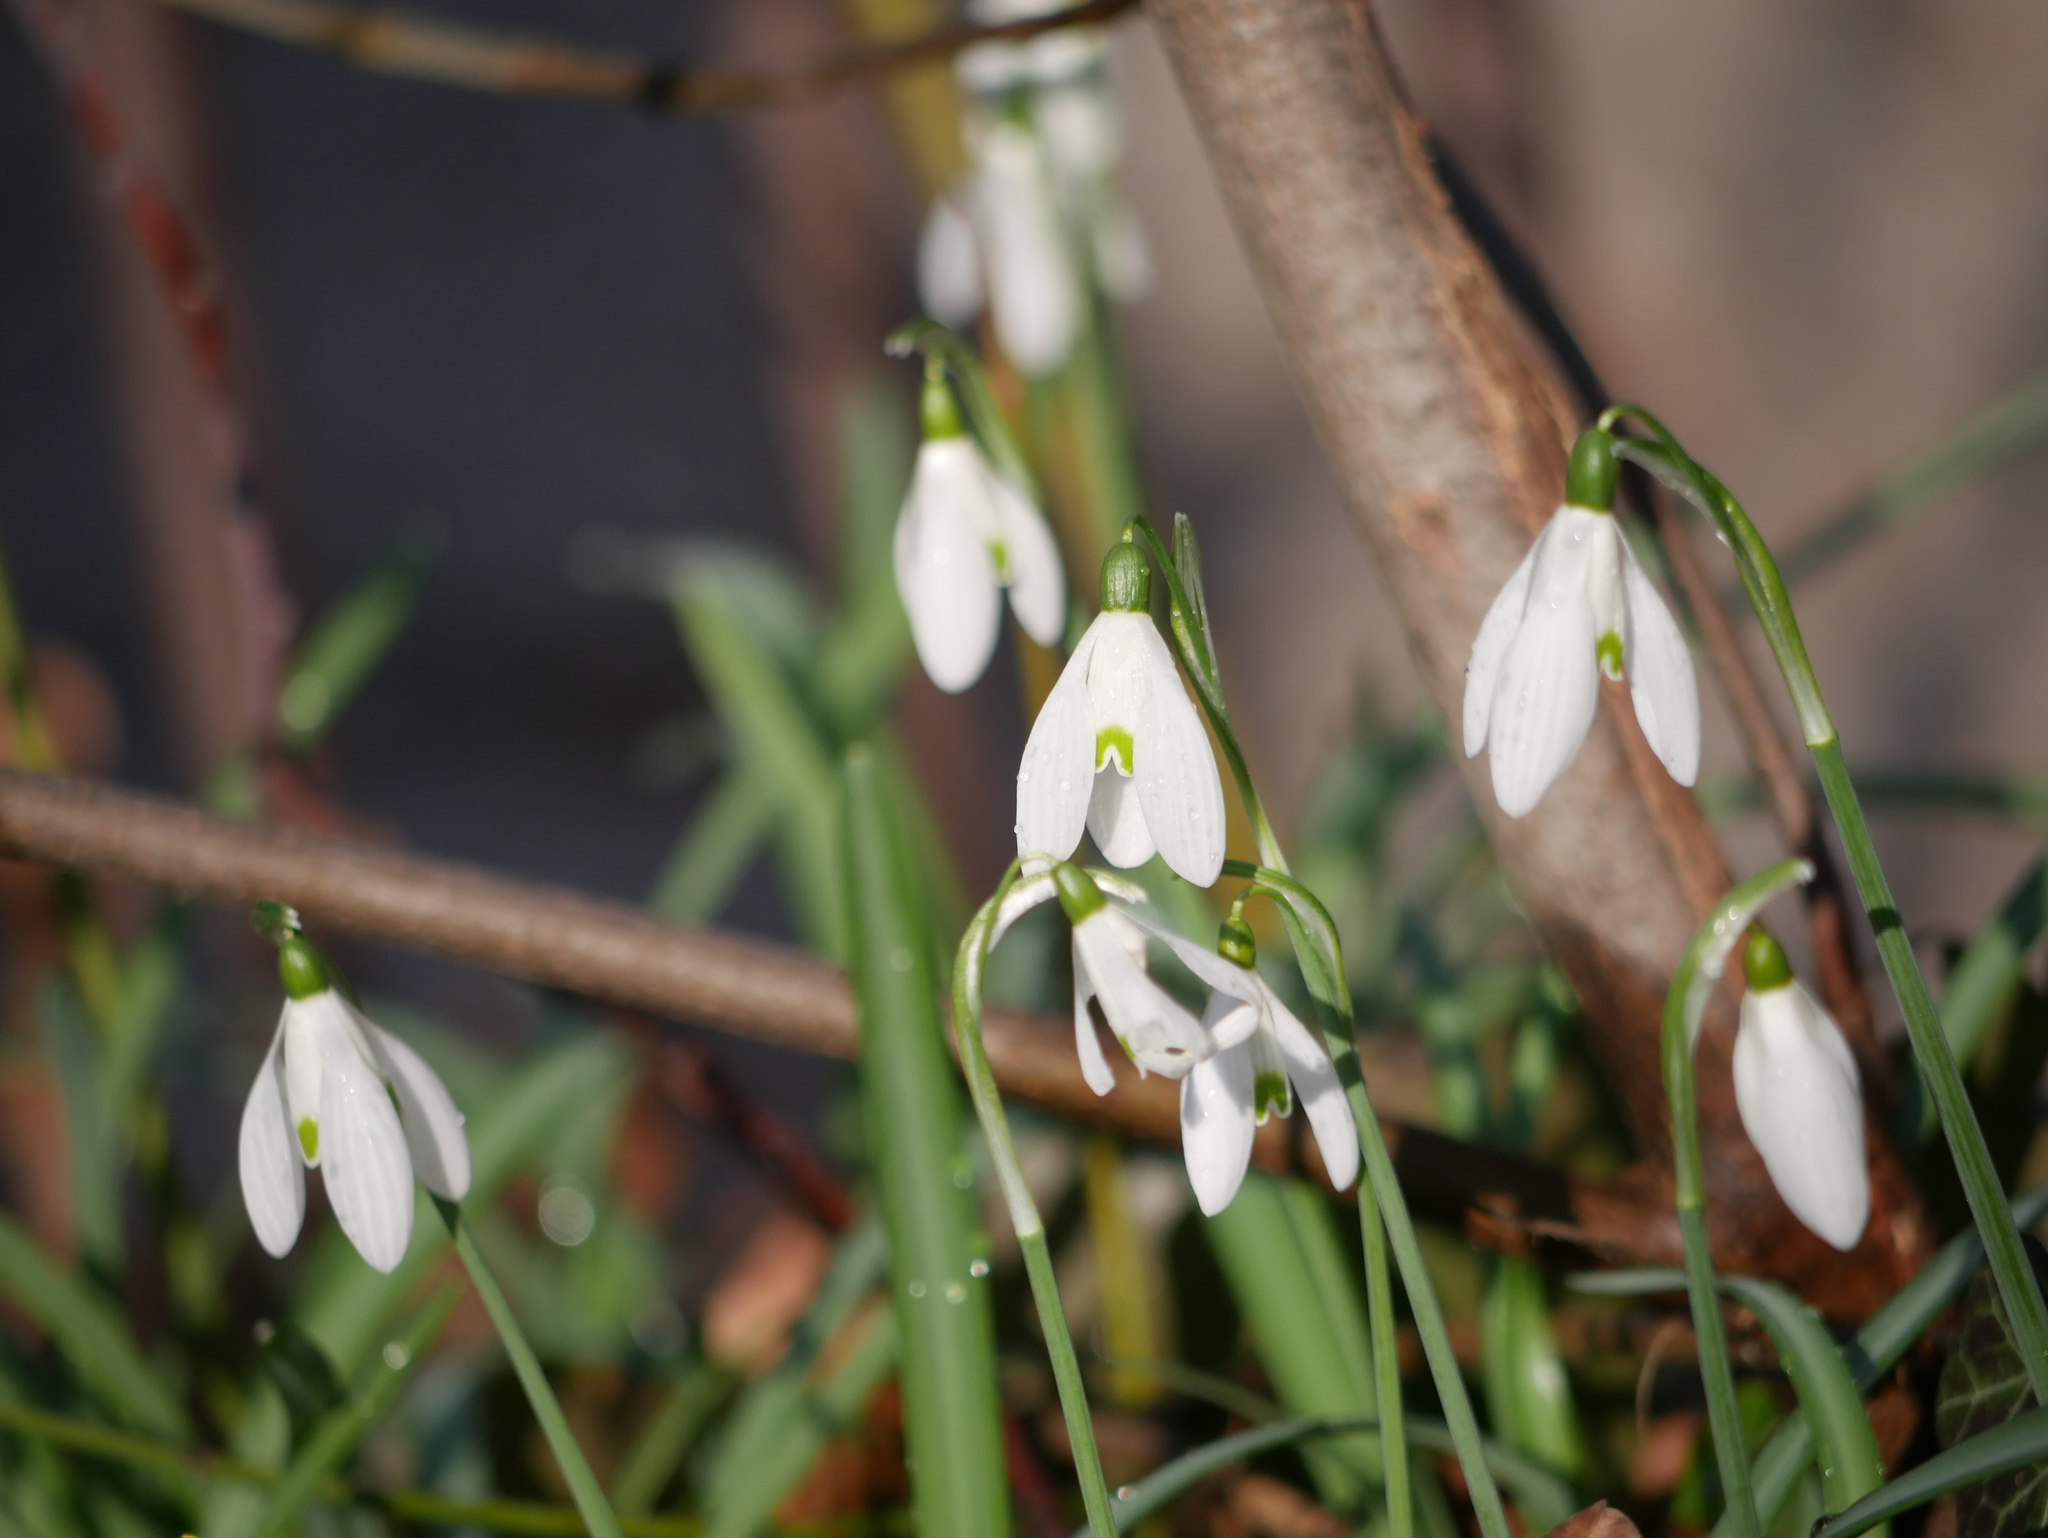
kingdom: Plantae
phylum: Tracheophyta
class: Liliopsida
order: Asparagales
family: Amaryllidaceae
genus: Galanthus
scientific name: Galanthus nivalis
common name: Snowdrop
